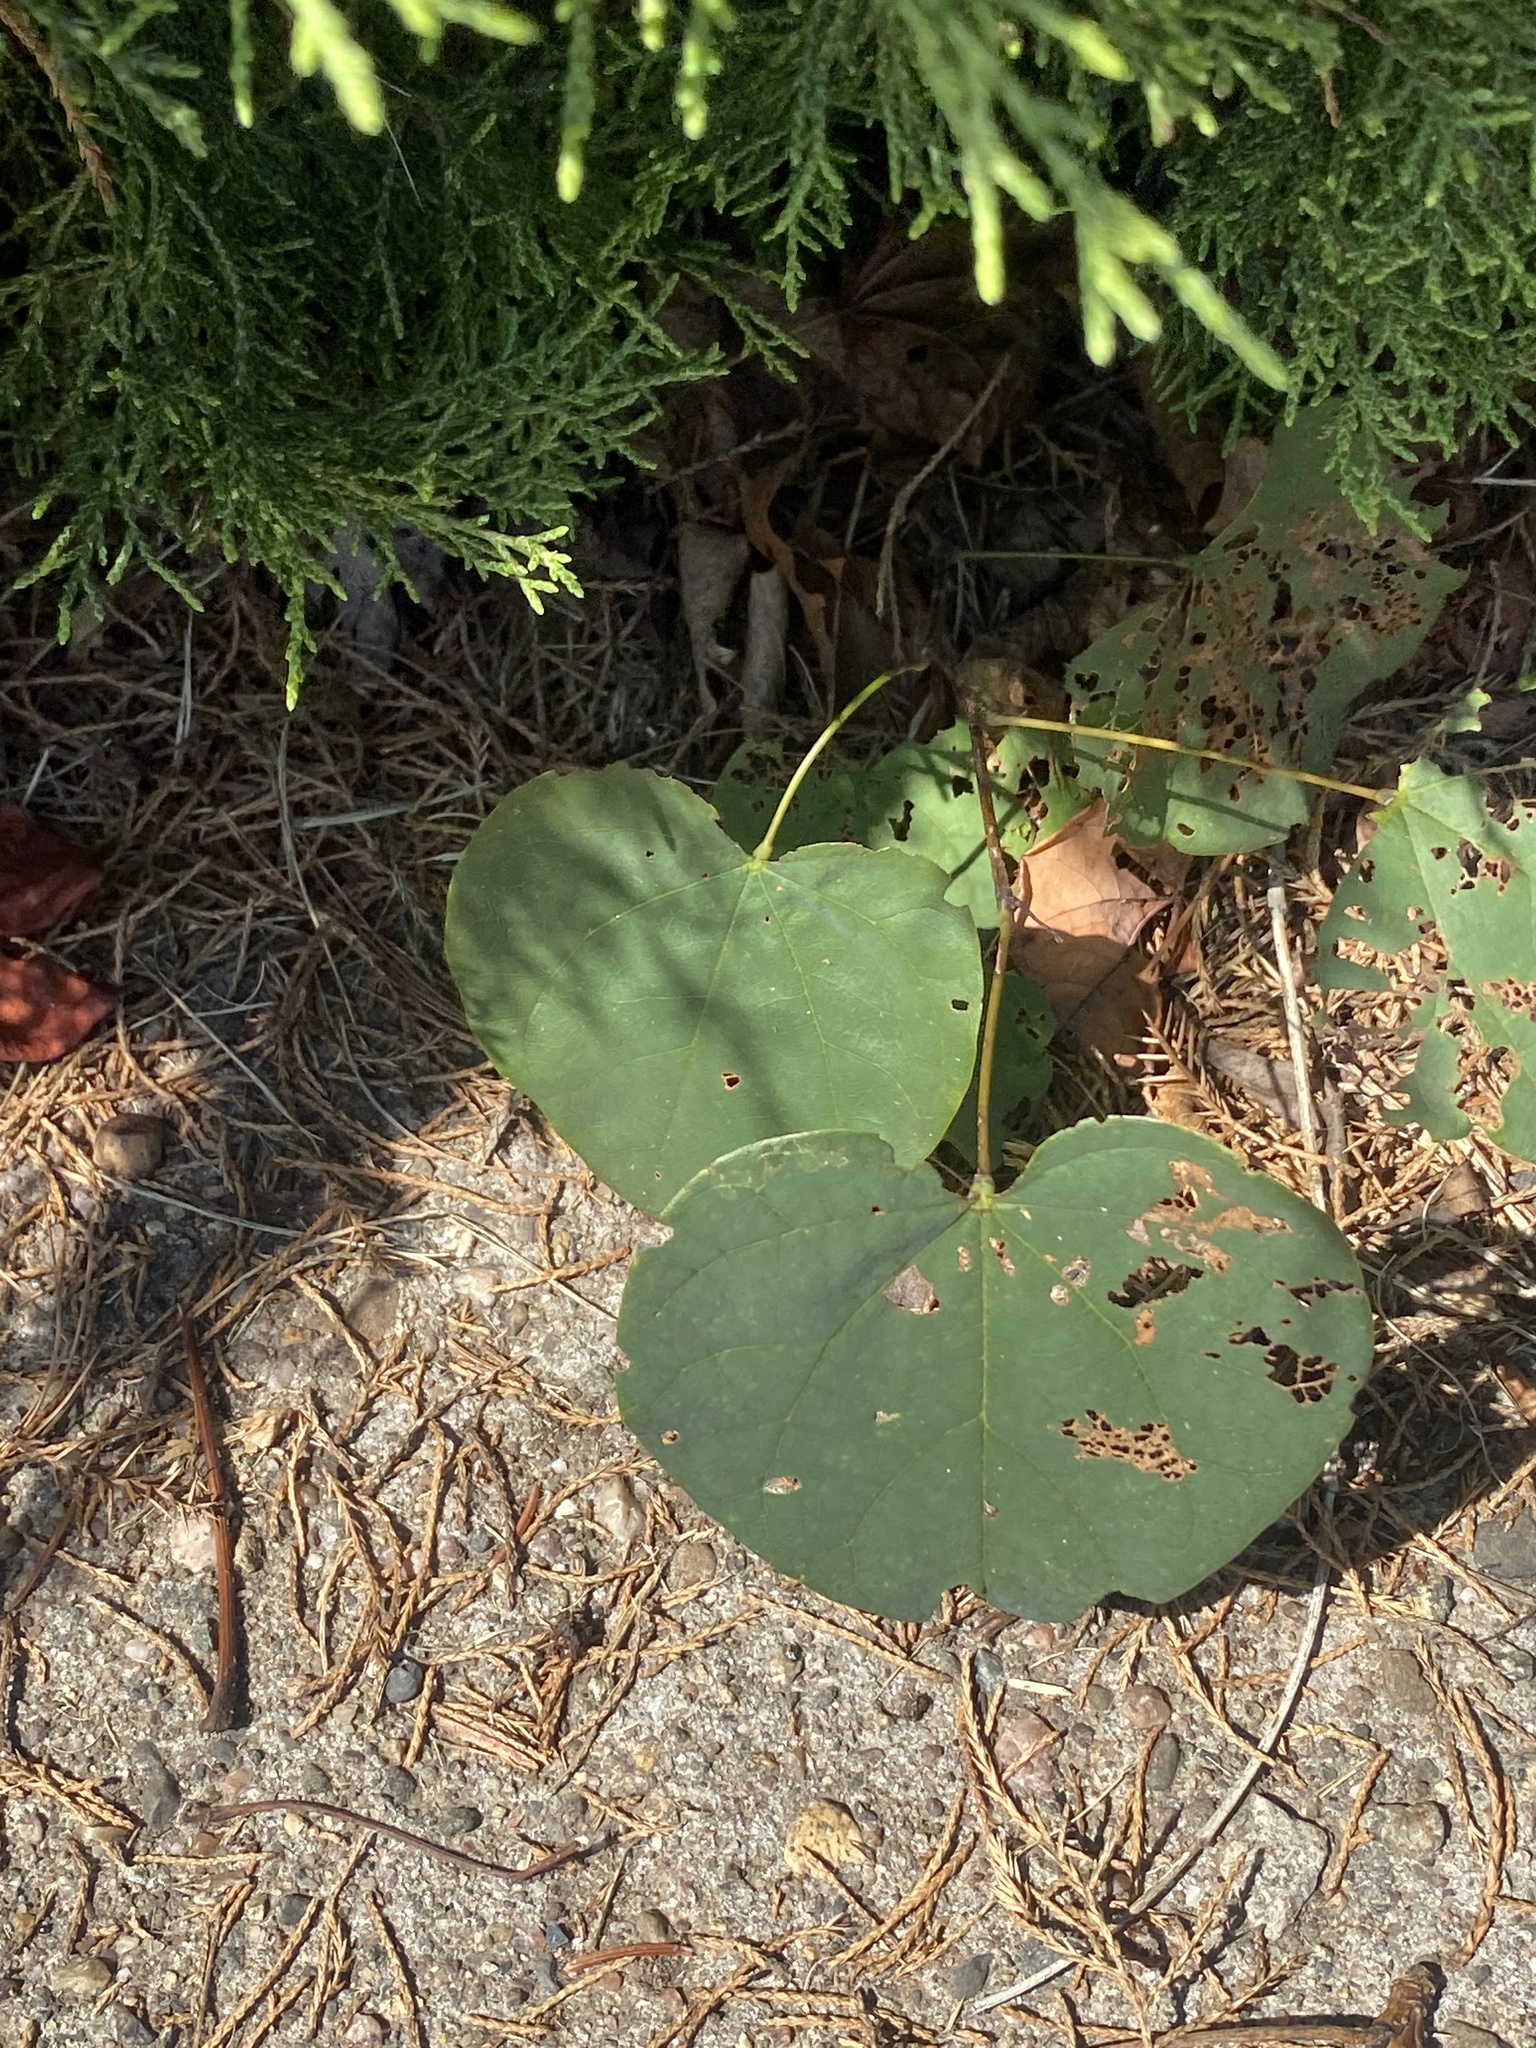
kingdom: Plantae
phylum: Tracheophyta
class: Magnoliopsida
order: Fabales
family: Fabaceae
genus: Cercis
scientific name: Cercis canadensis
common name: Eastern redbud
